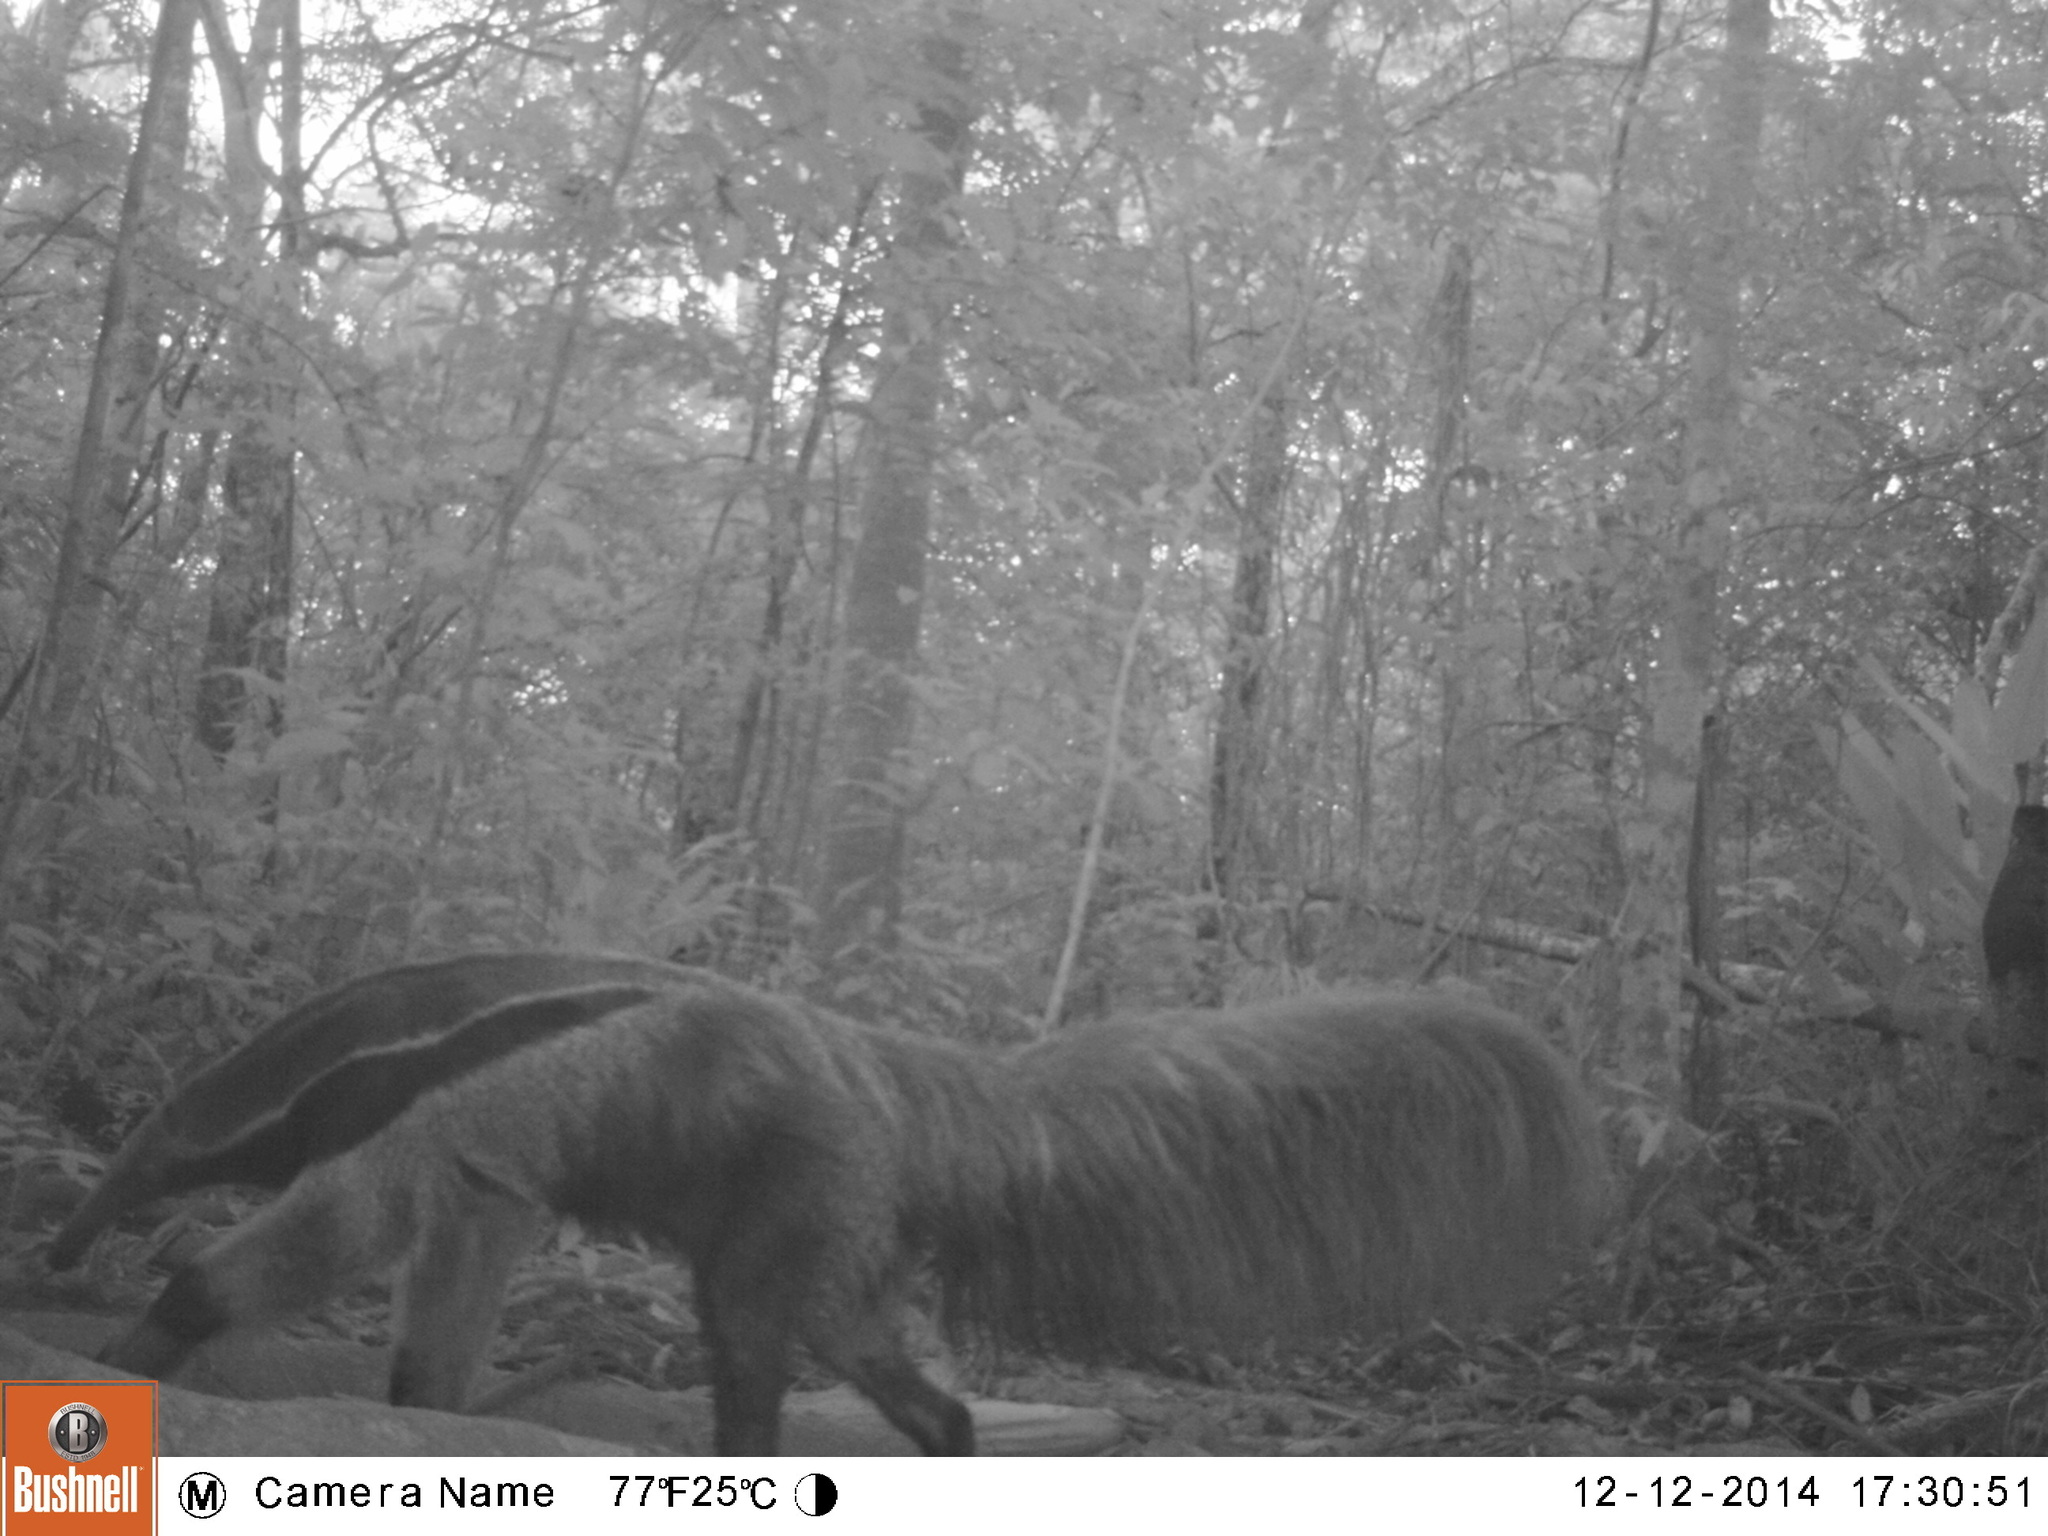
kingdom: Animalia
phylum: Chordata
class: Mammalia
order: Pilosa
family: Myrmecophagidae
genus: Myrmecophaga
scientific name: Myrmecophaga tridactyla
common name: Giant anteater
